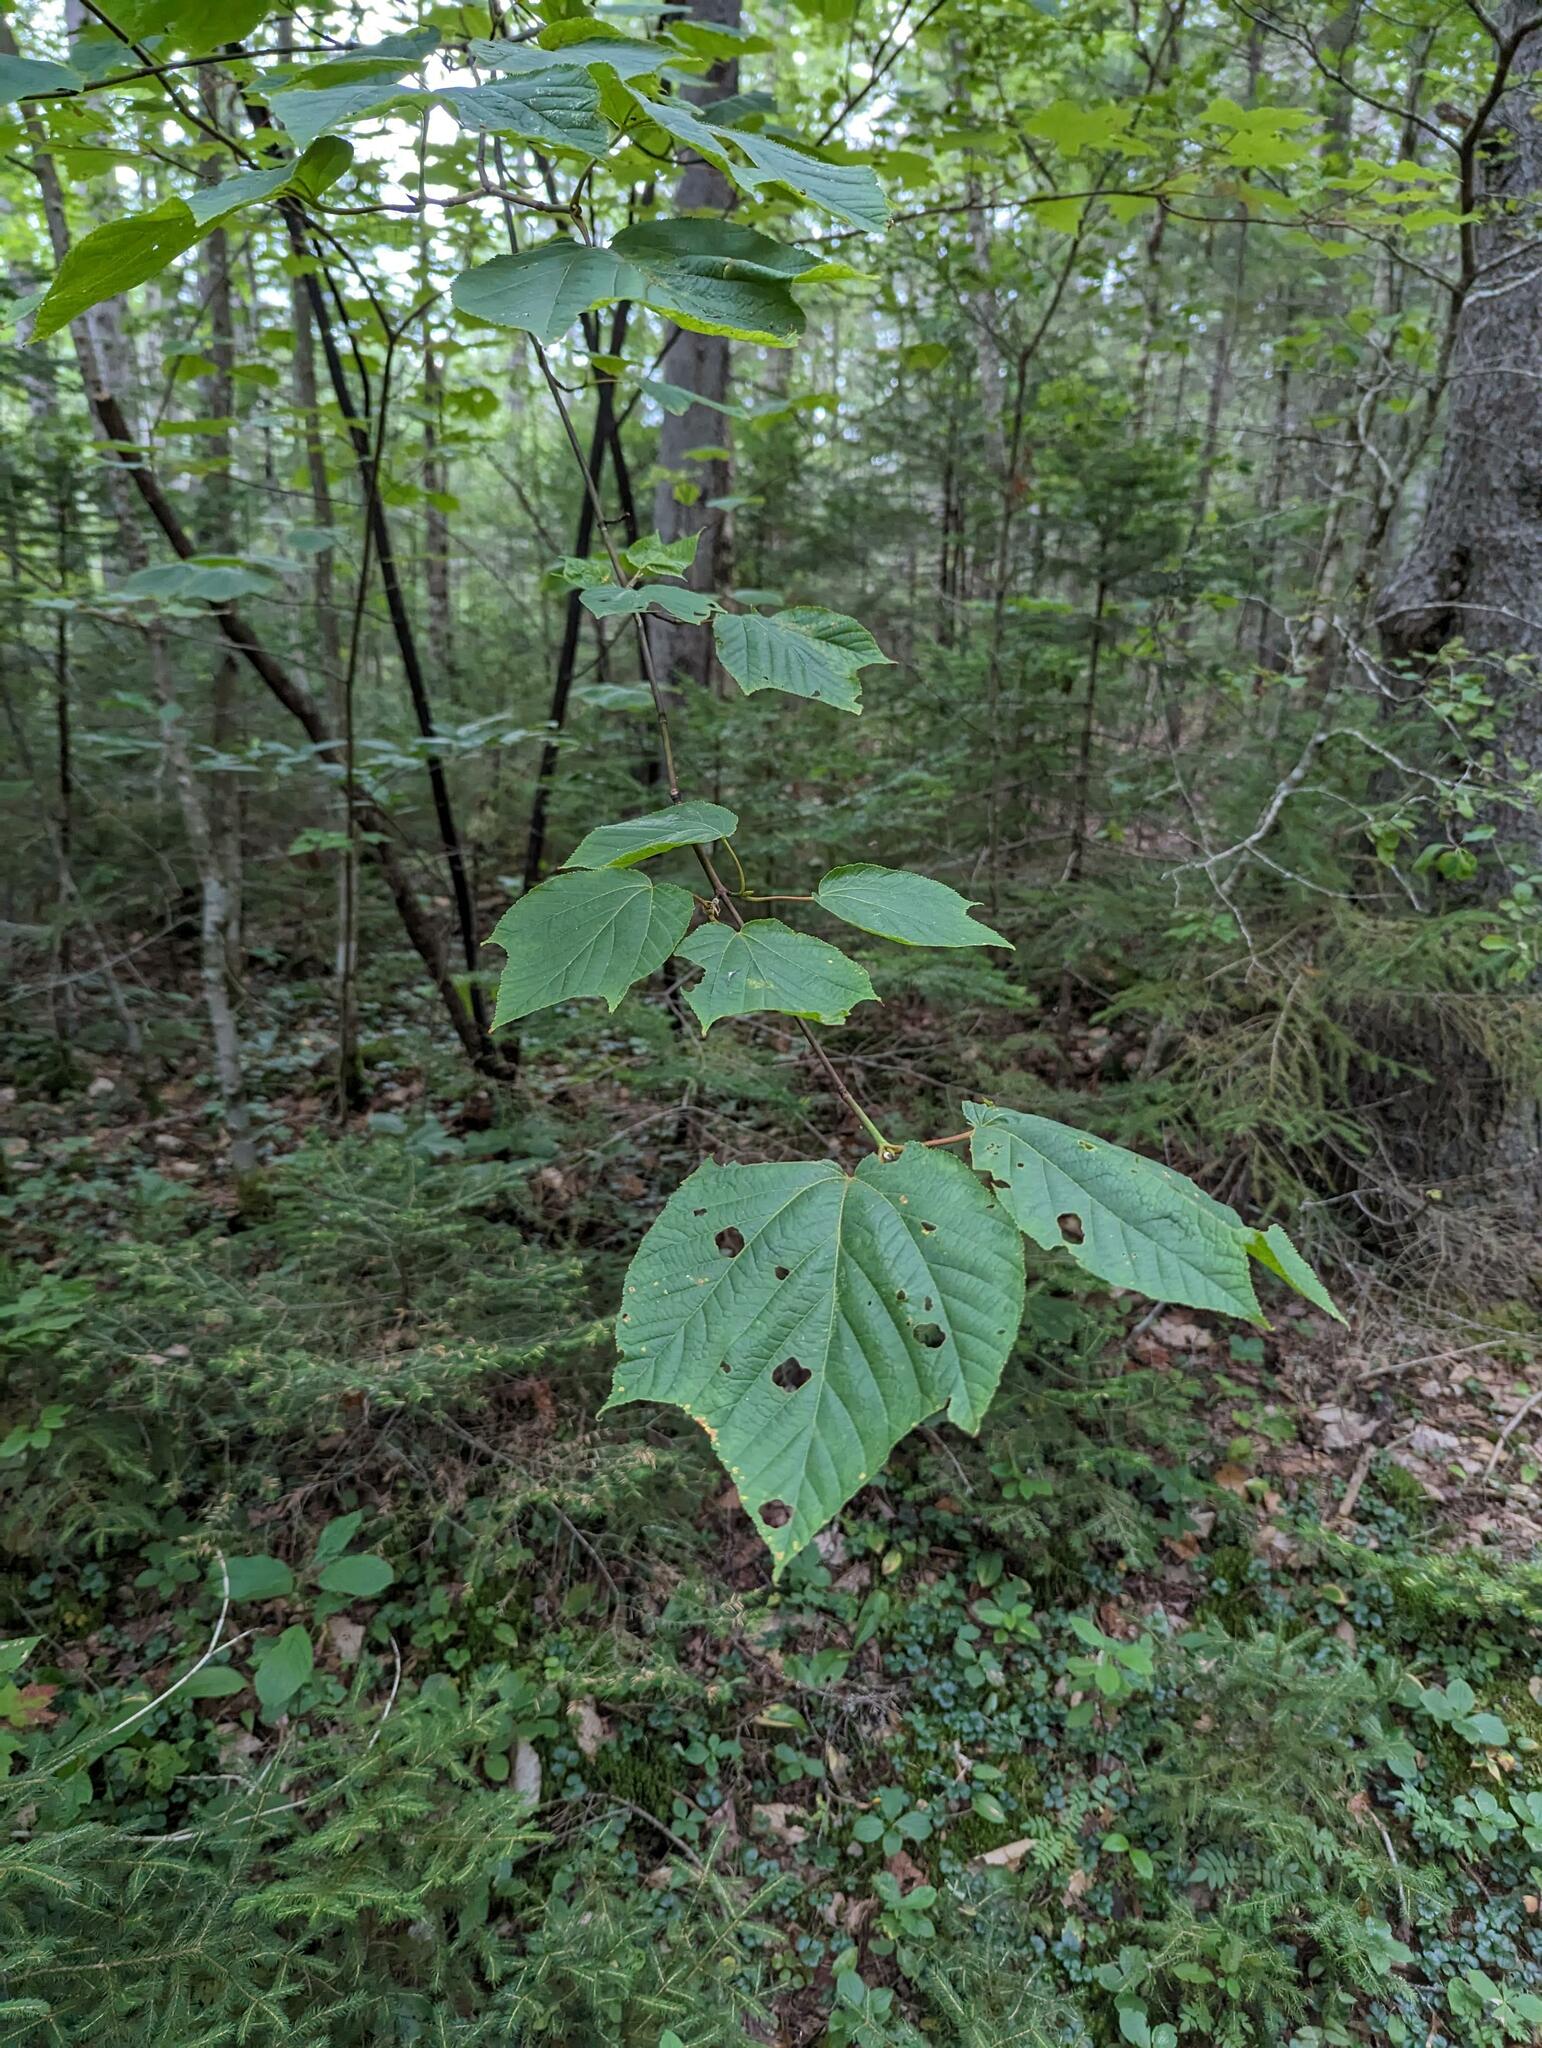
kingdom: Plantae
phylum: Tracheophyta
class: Magnoliopsida
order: Sapindales
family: Sapindaceae
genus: Acer
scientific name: Acer pensylvanicum
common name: Moosewood
